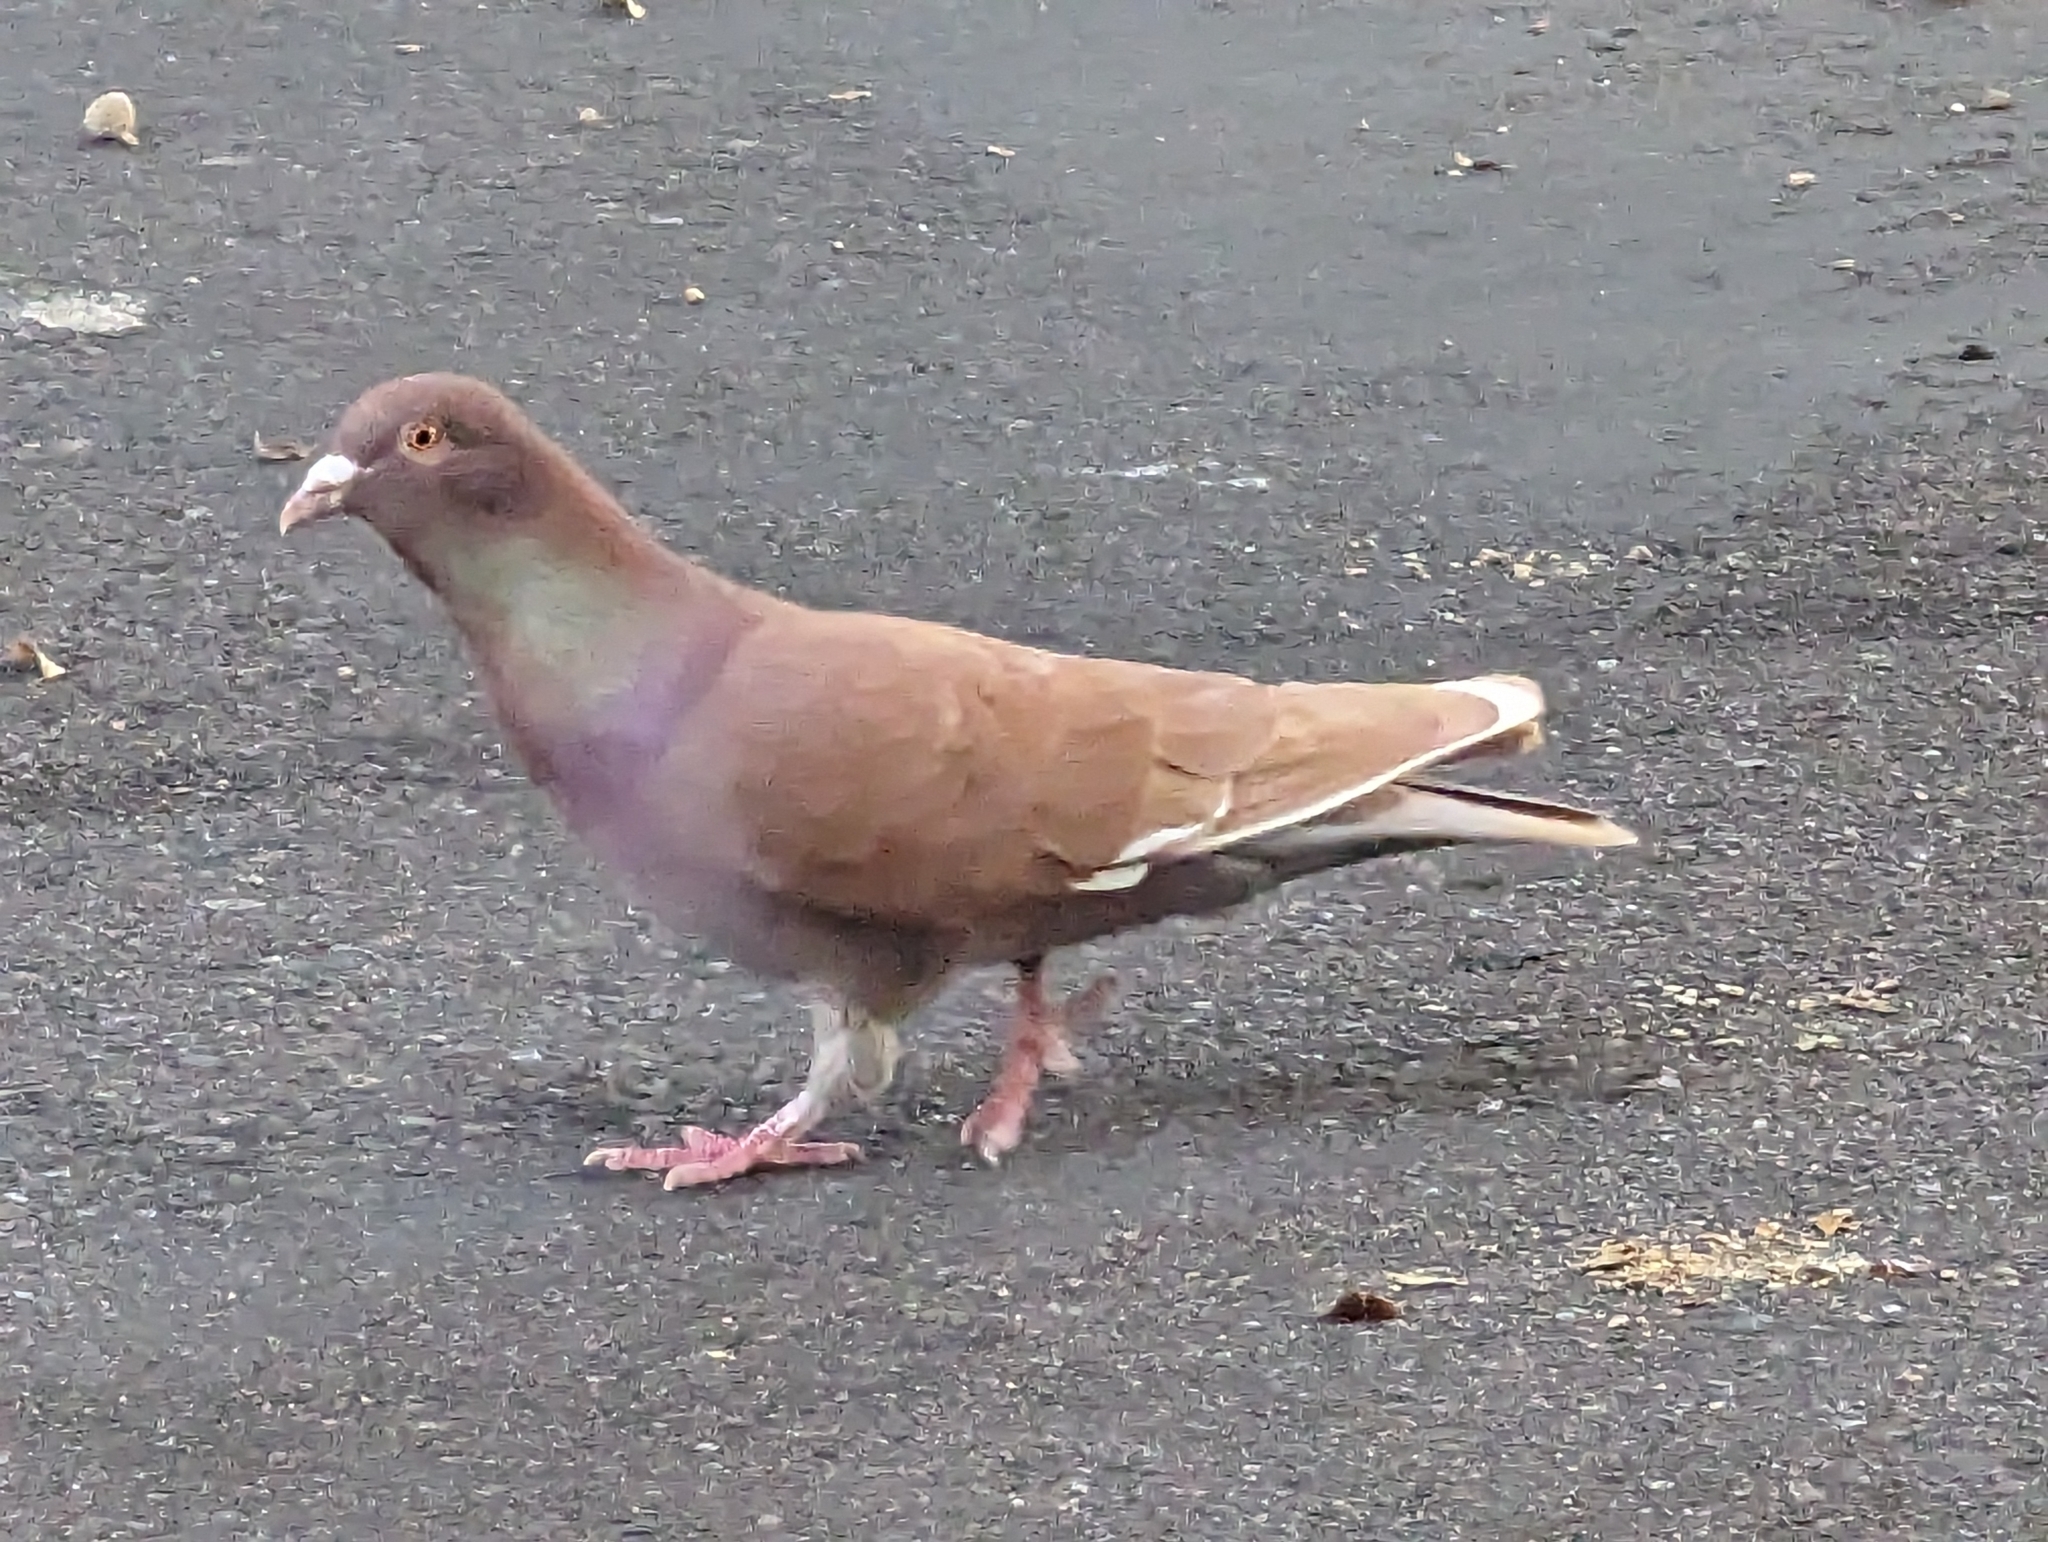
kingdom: Animalia
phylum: Chordata
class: Aves
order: Columbiformes
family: Columbidae
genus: Columba
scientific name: Columba livia
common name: Rock pigeon
